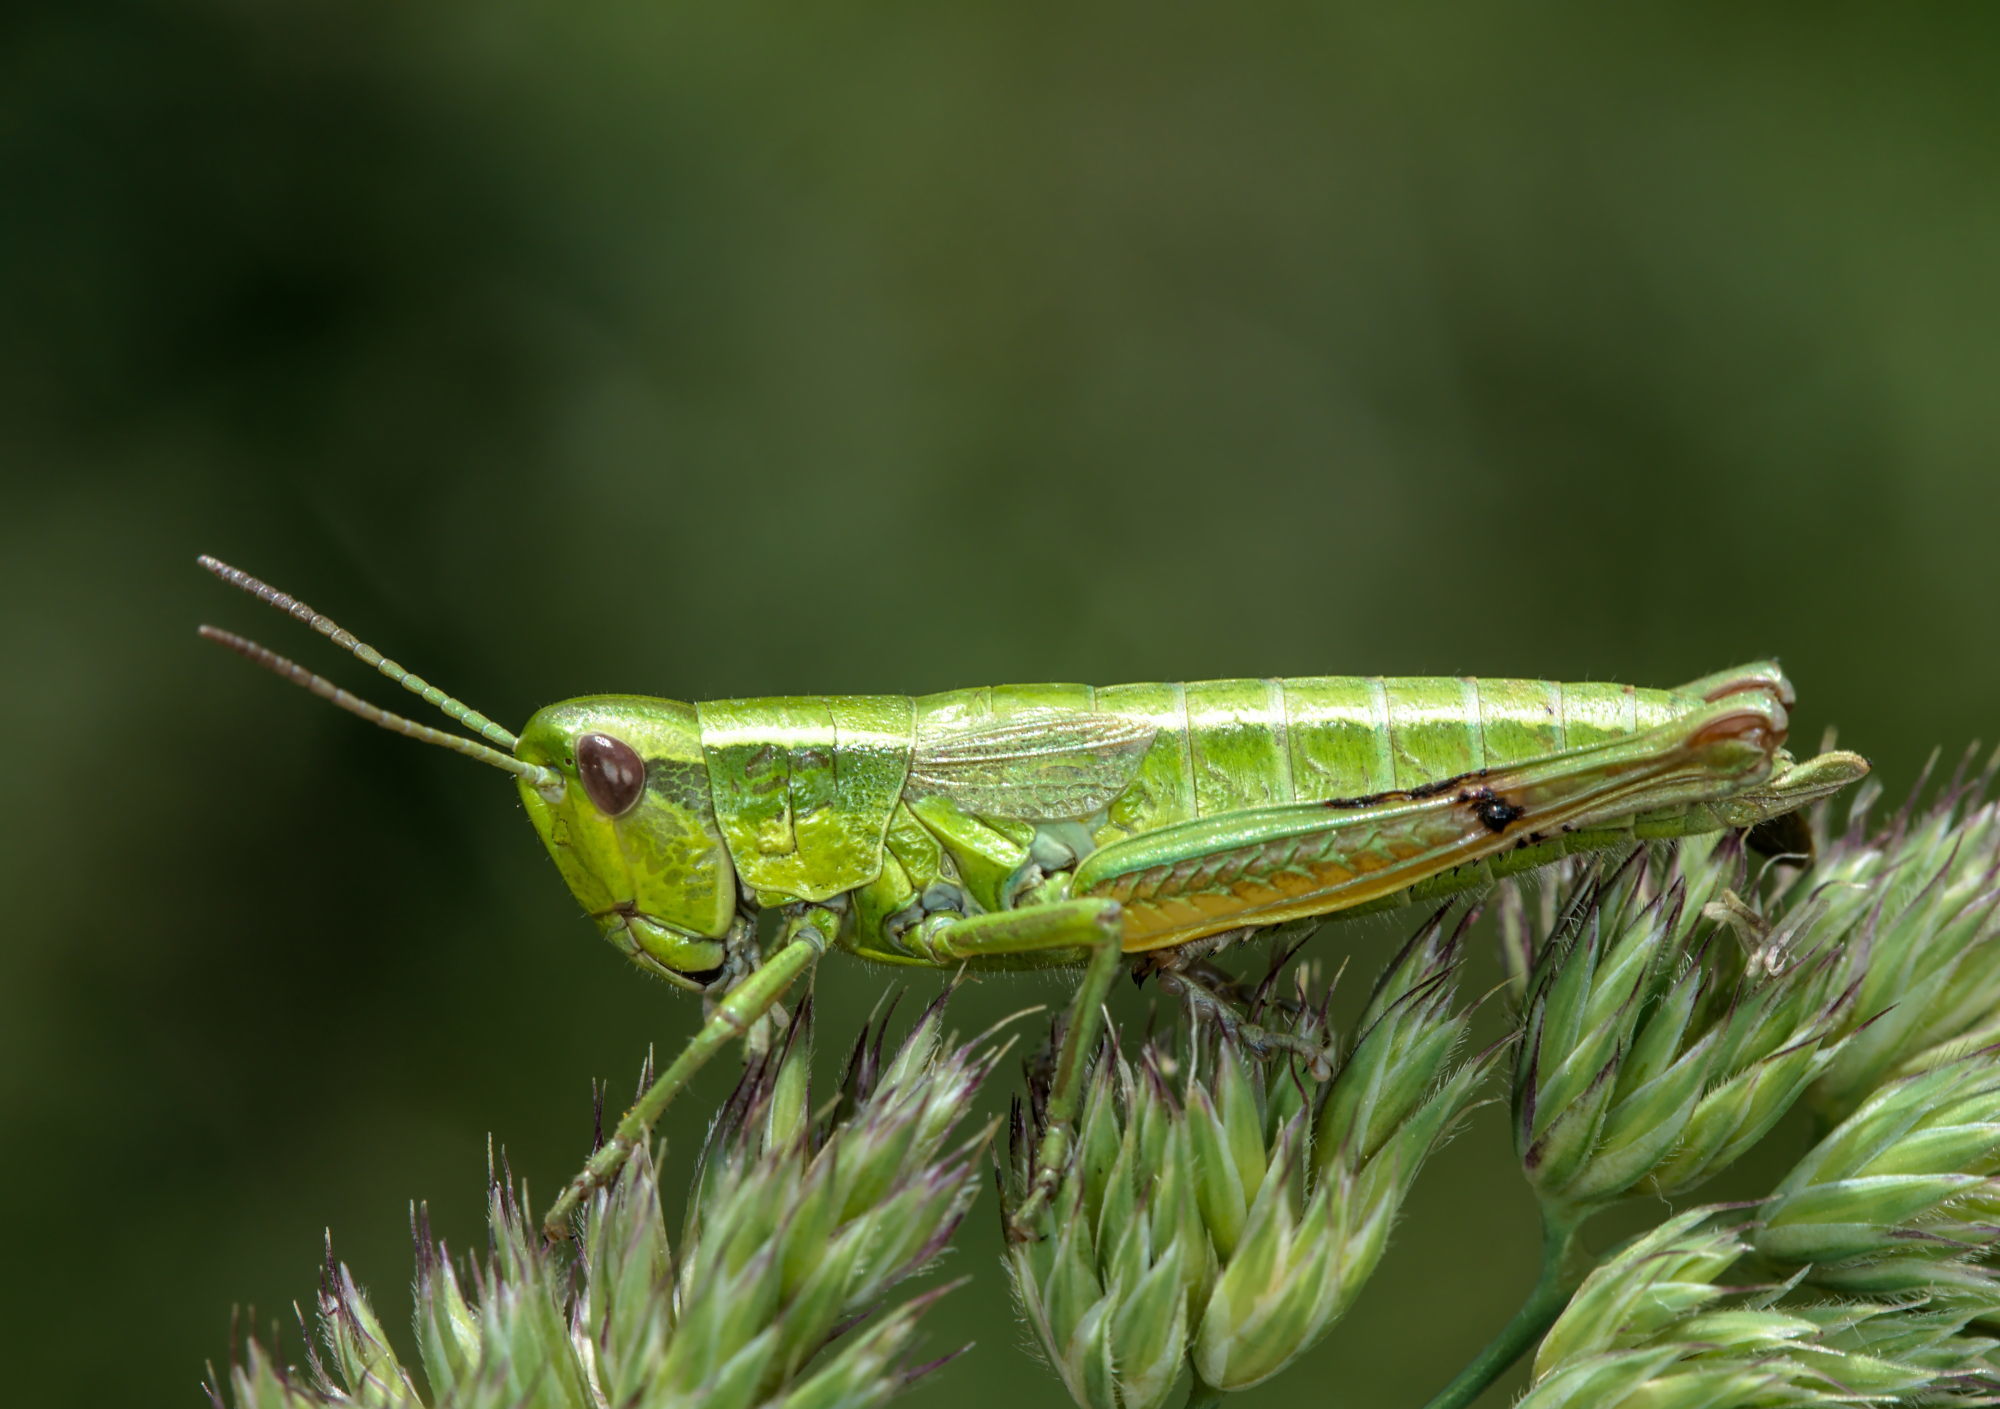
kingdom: Animalia
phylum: Arthropoda
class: Insecta
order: Orthoptera
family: Acrididae
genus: Euthystira
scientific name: Euthystira brachyptera
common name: Small gold grasshopper
